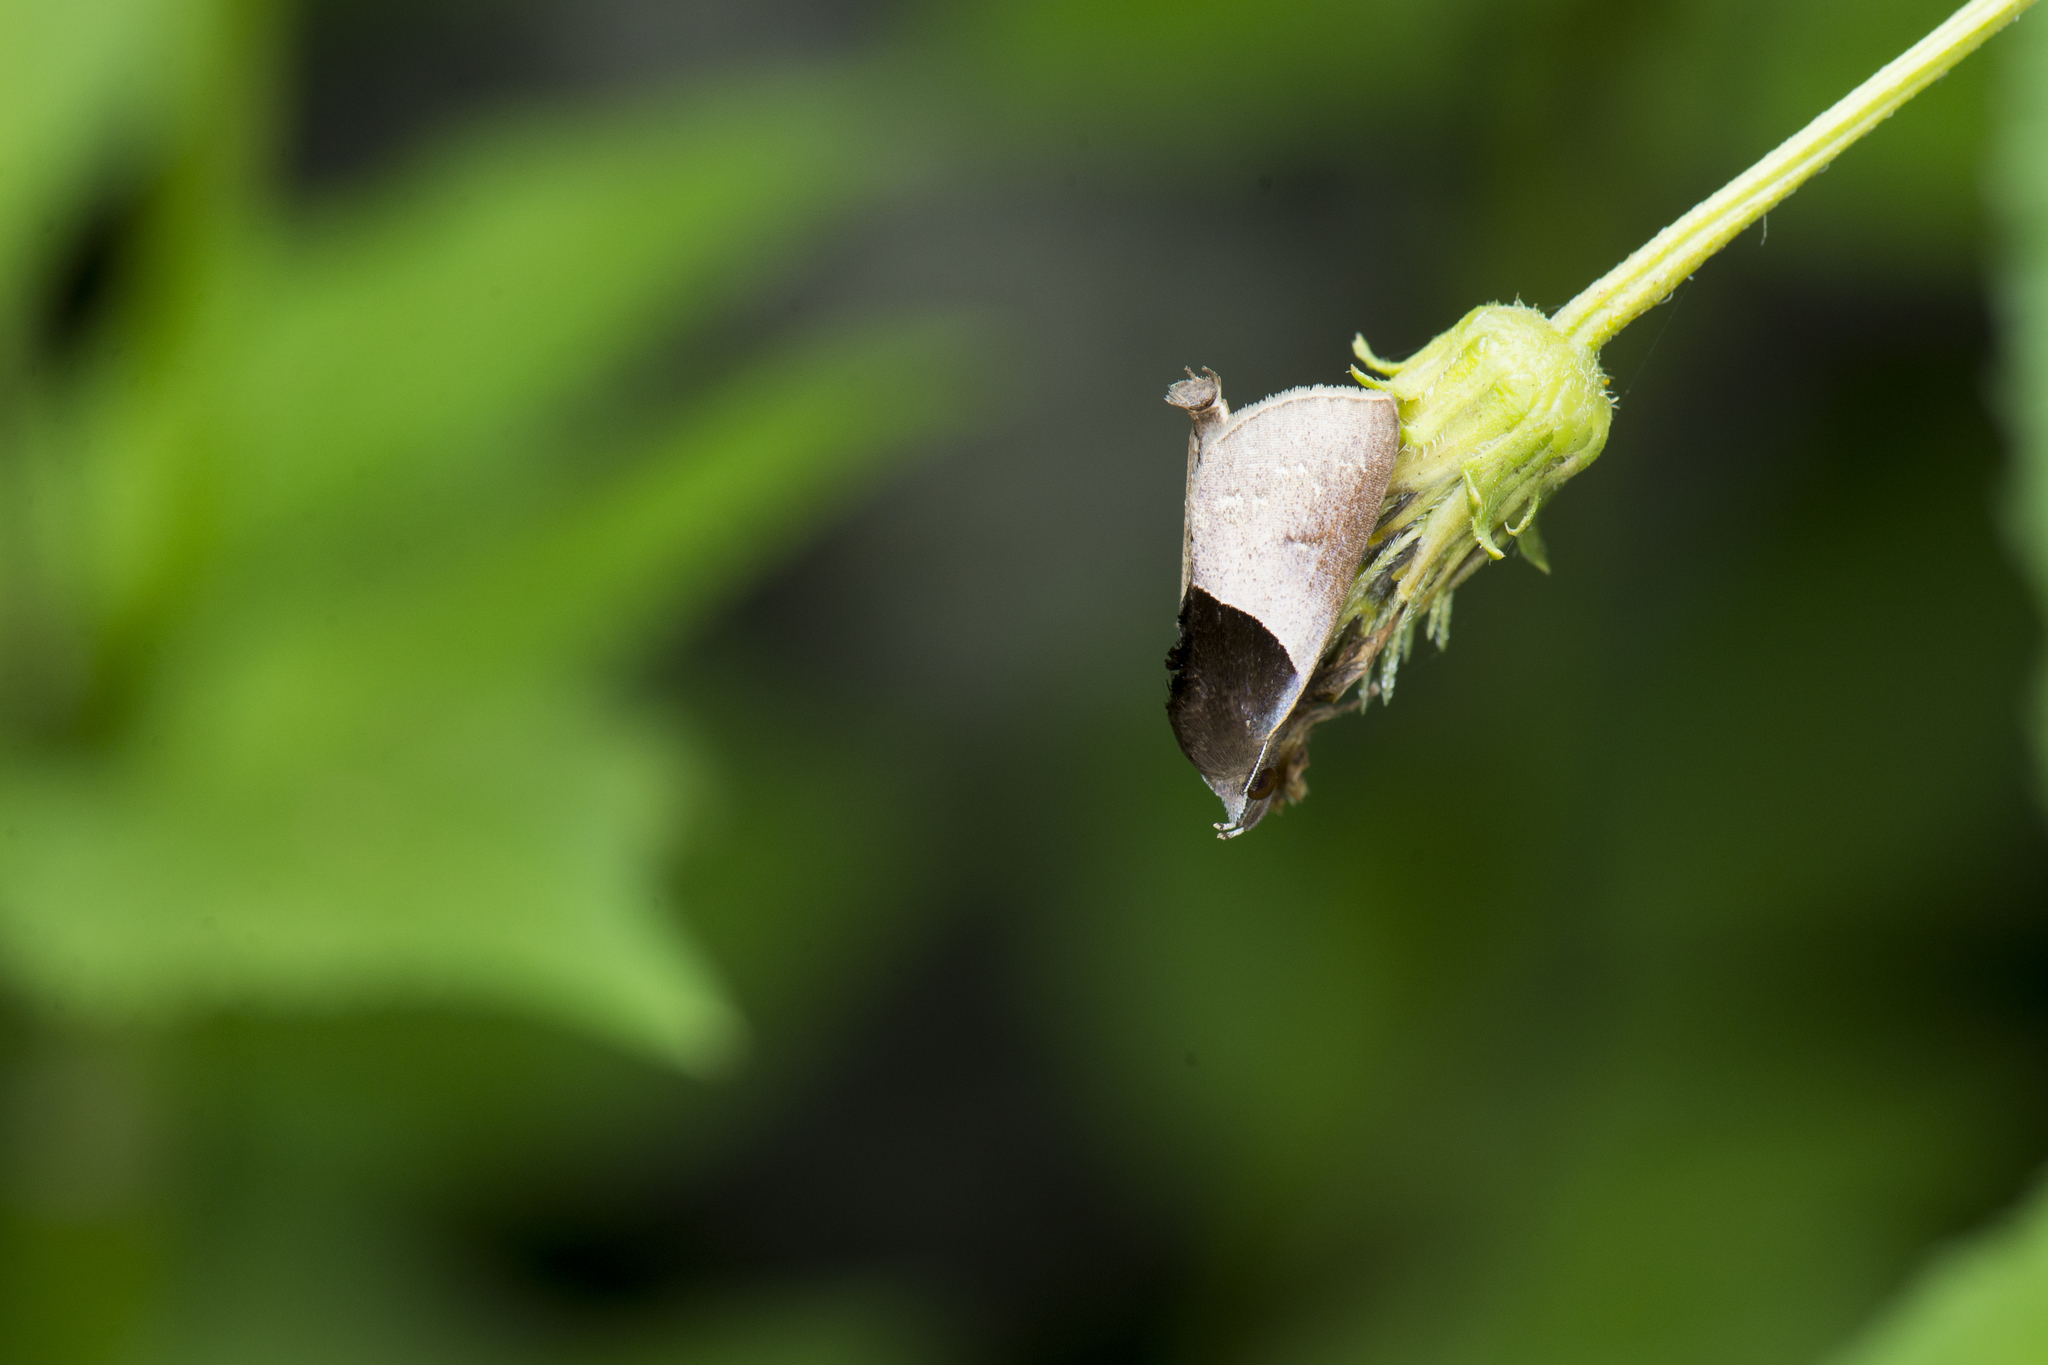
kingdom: Animalia
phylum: Arthropoda
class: Insecta
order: Lepidoptera
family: Erebidae
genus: Acidon
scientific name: Acidon nigrobasis
